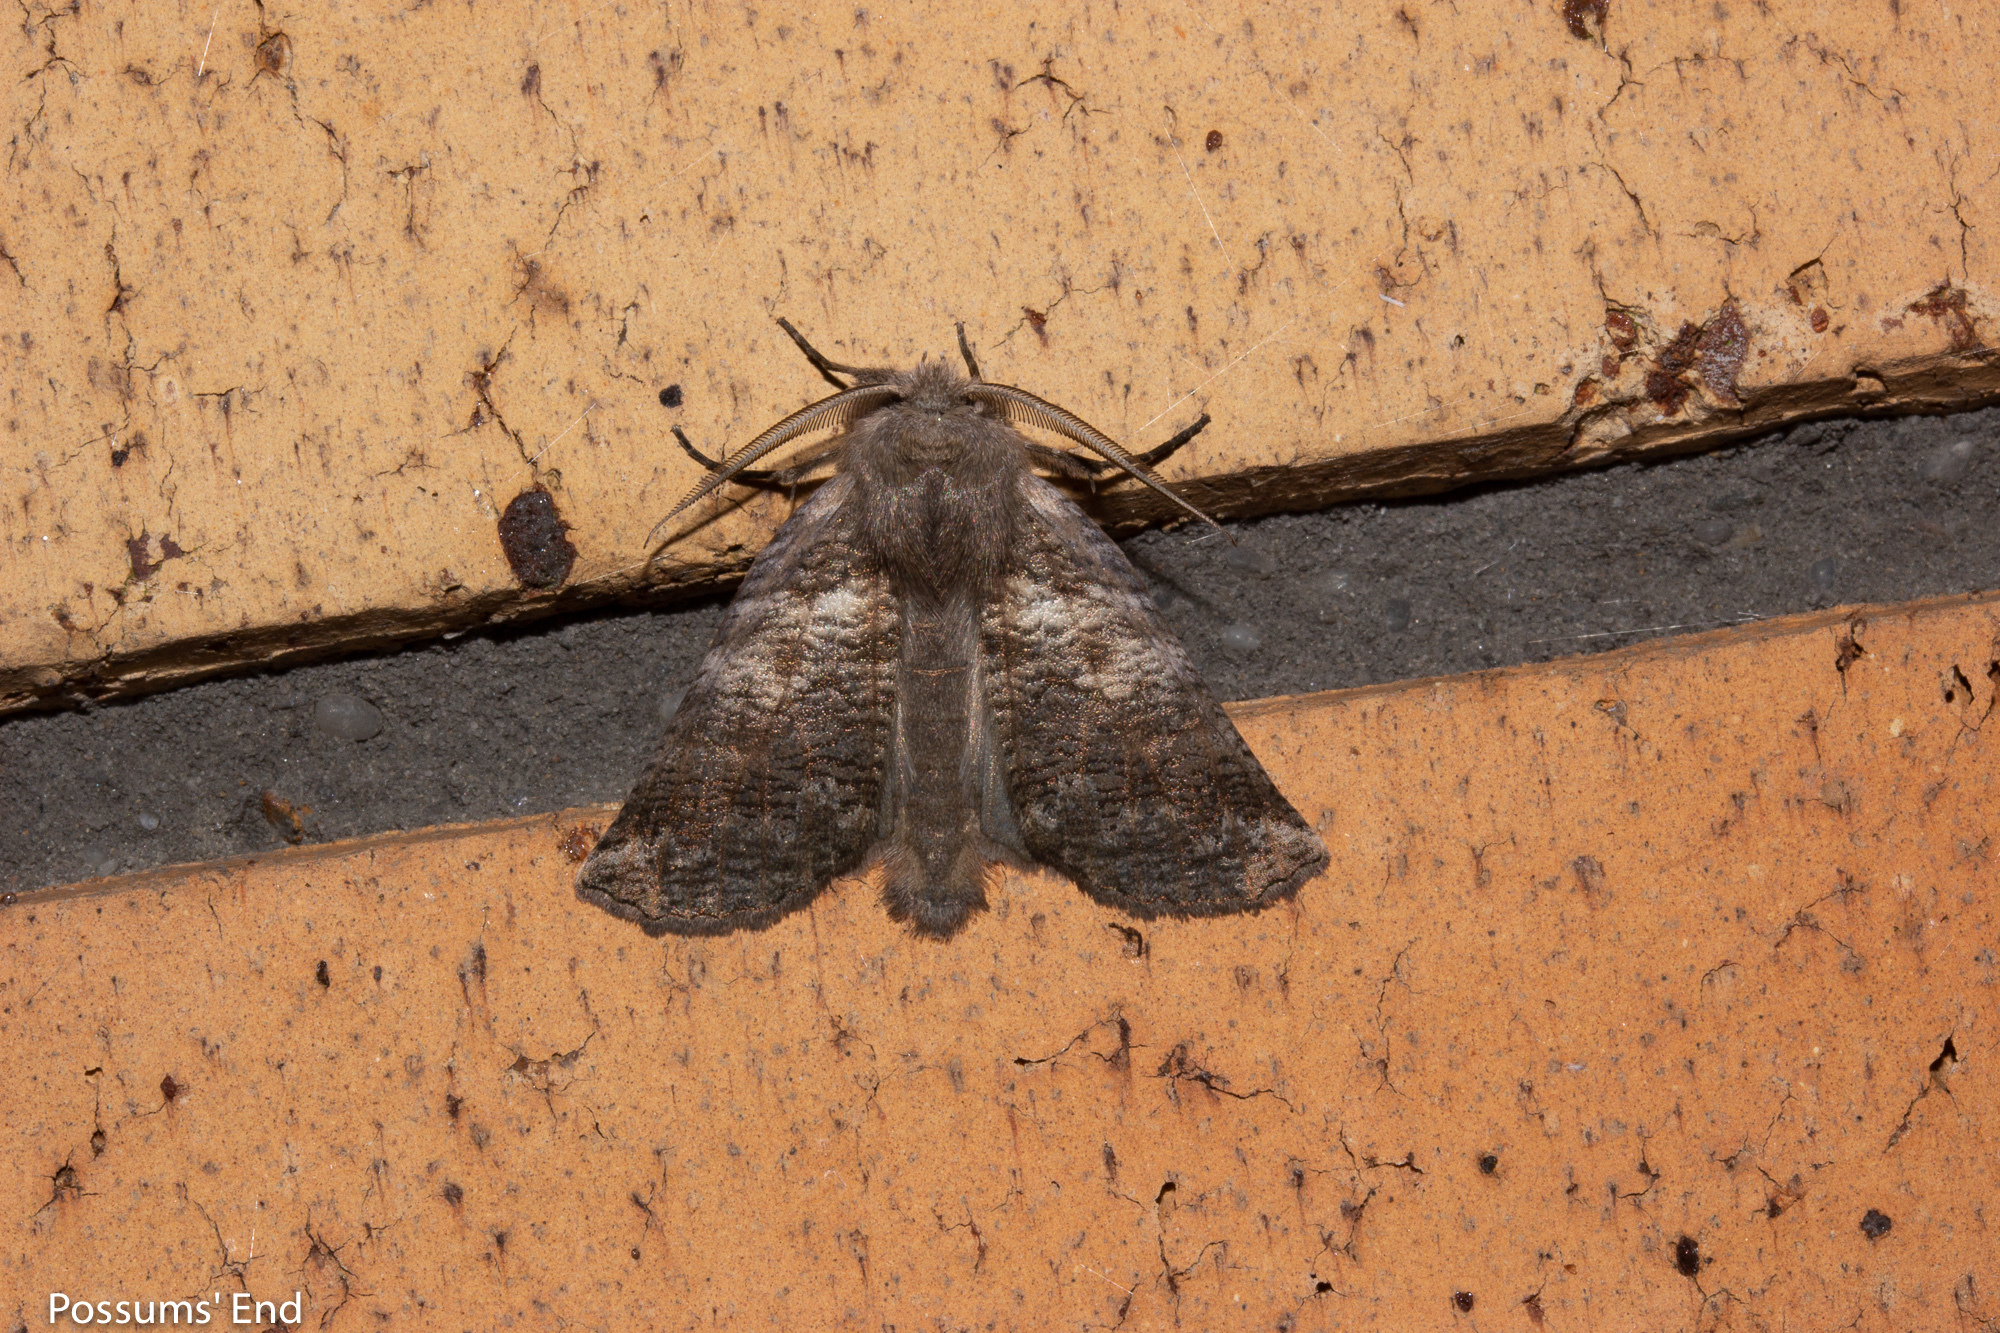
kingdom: Animalia
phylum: Arthropoda
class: Insecta
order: Lepidoptera
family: Geometridae
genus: Declana
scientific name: Declana
